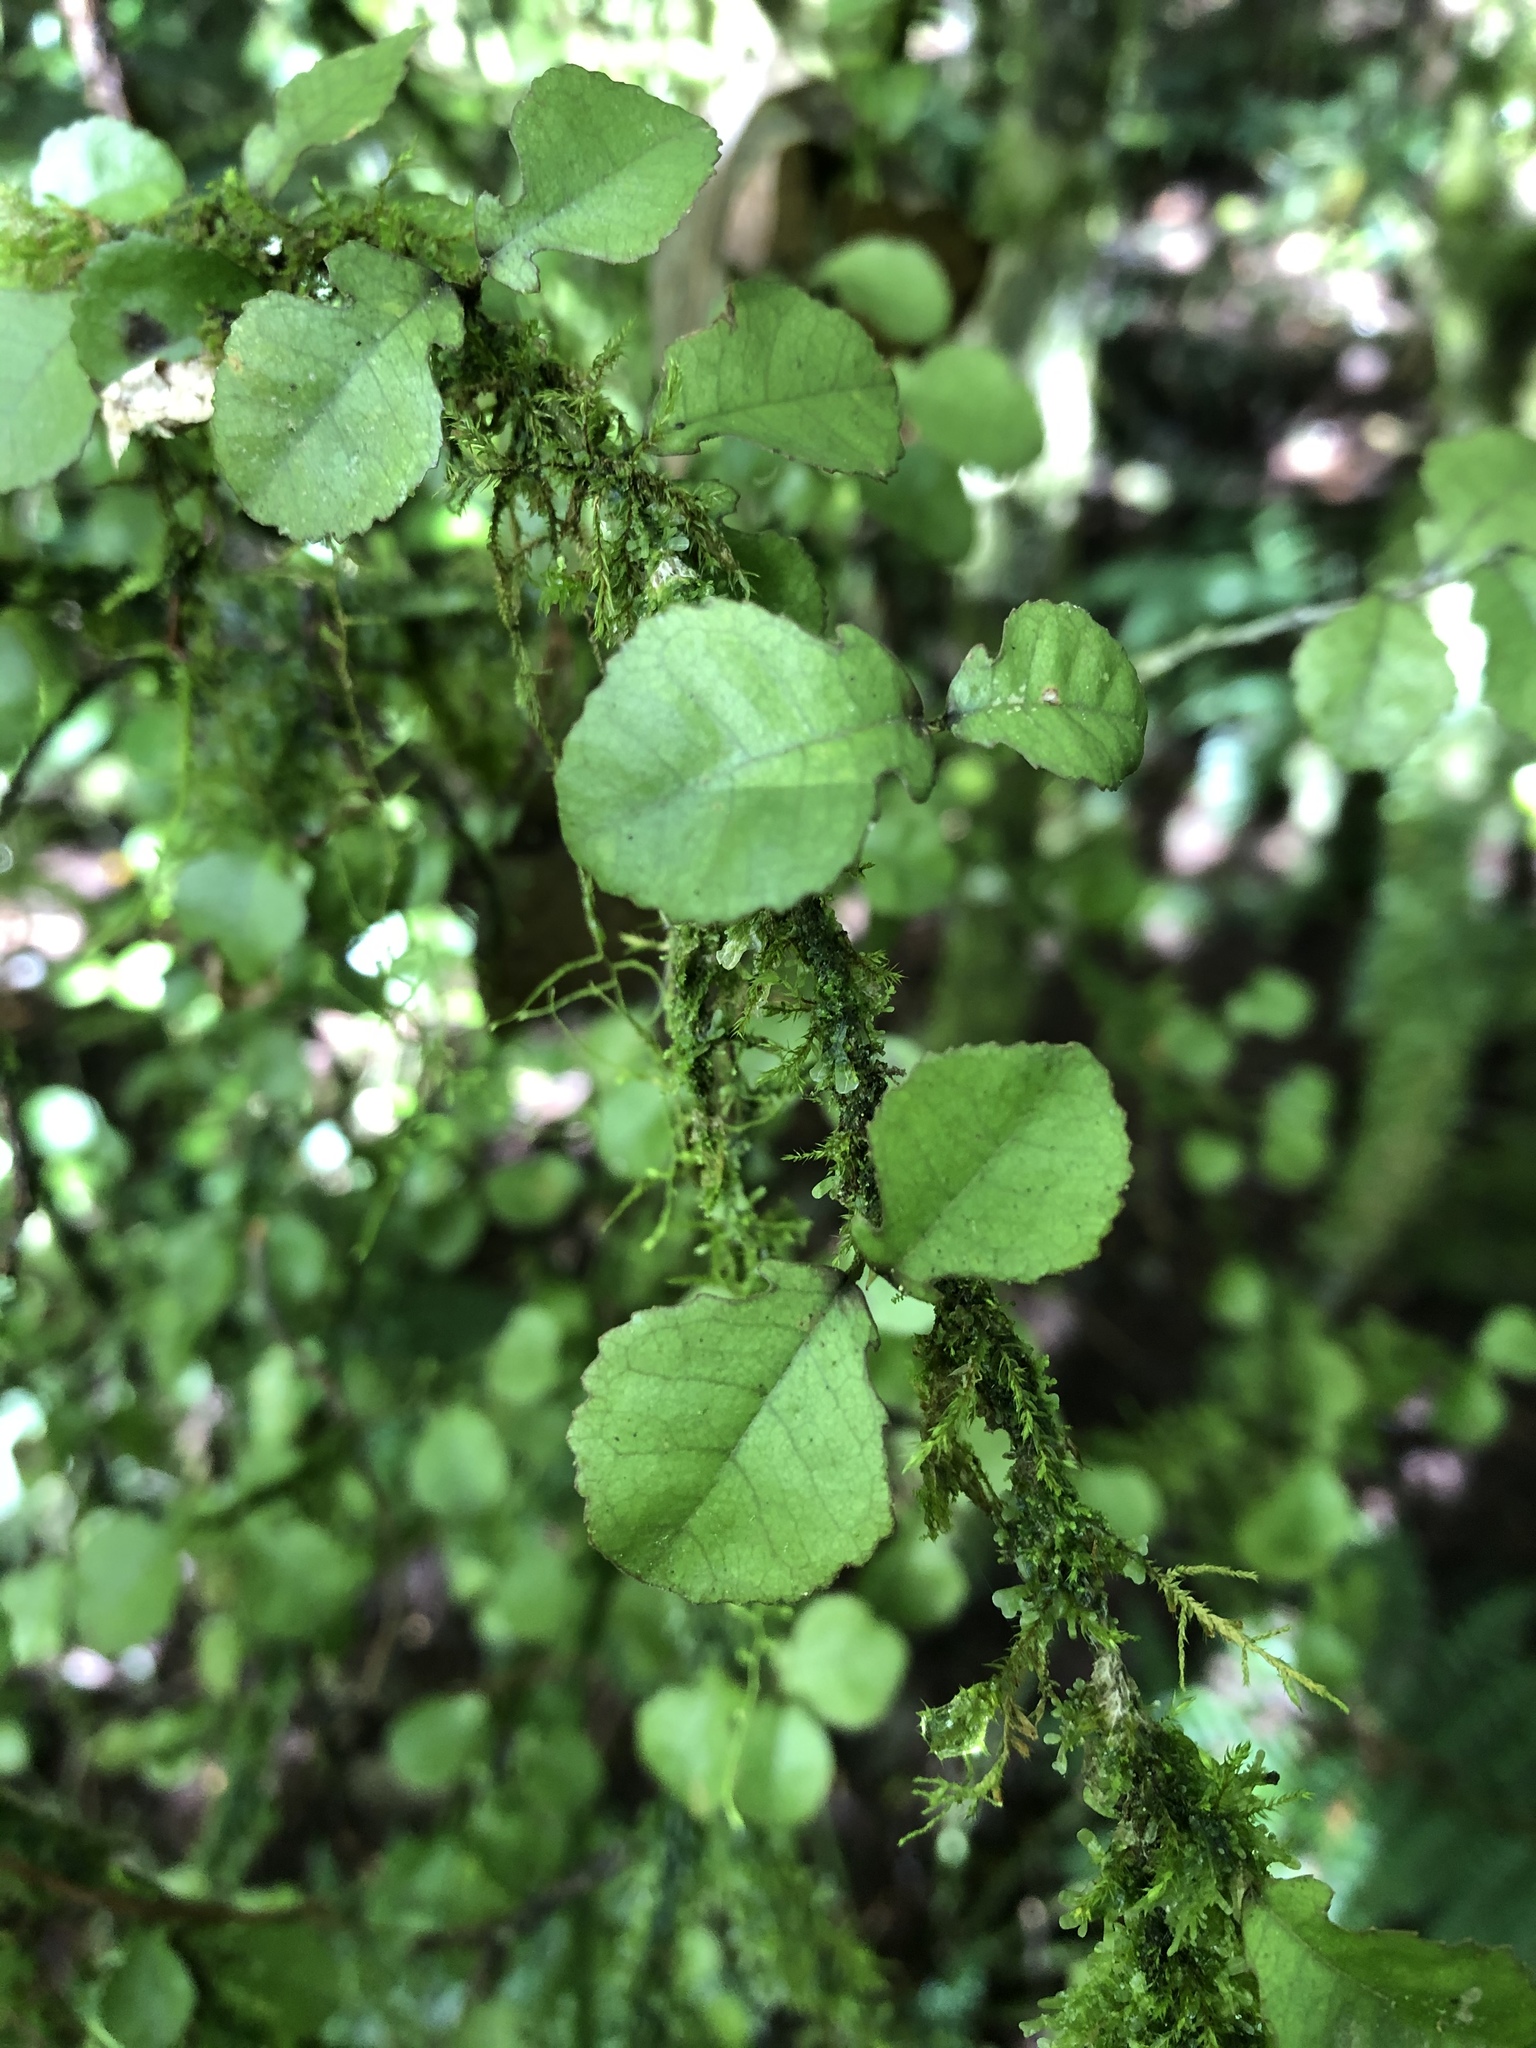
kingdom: Plantae
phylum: Tracheophyta
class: Magnoliopsida
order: Rosales
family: Moraceae
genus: Paratrophis
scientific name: Paratrophis microphylla
